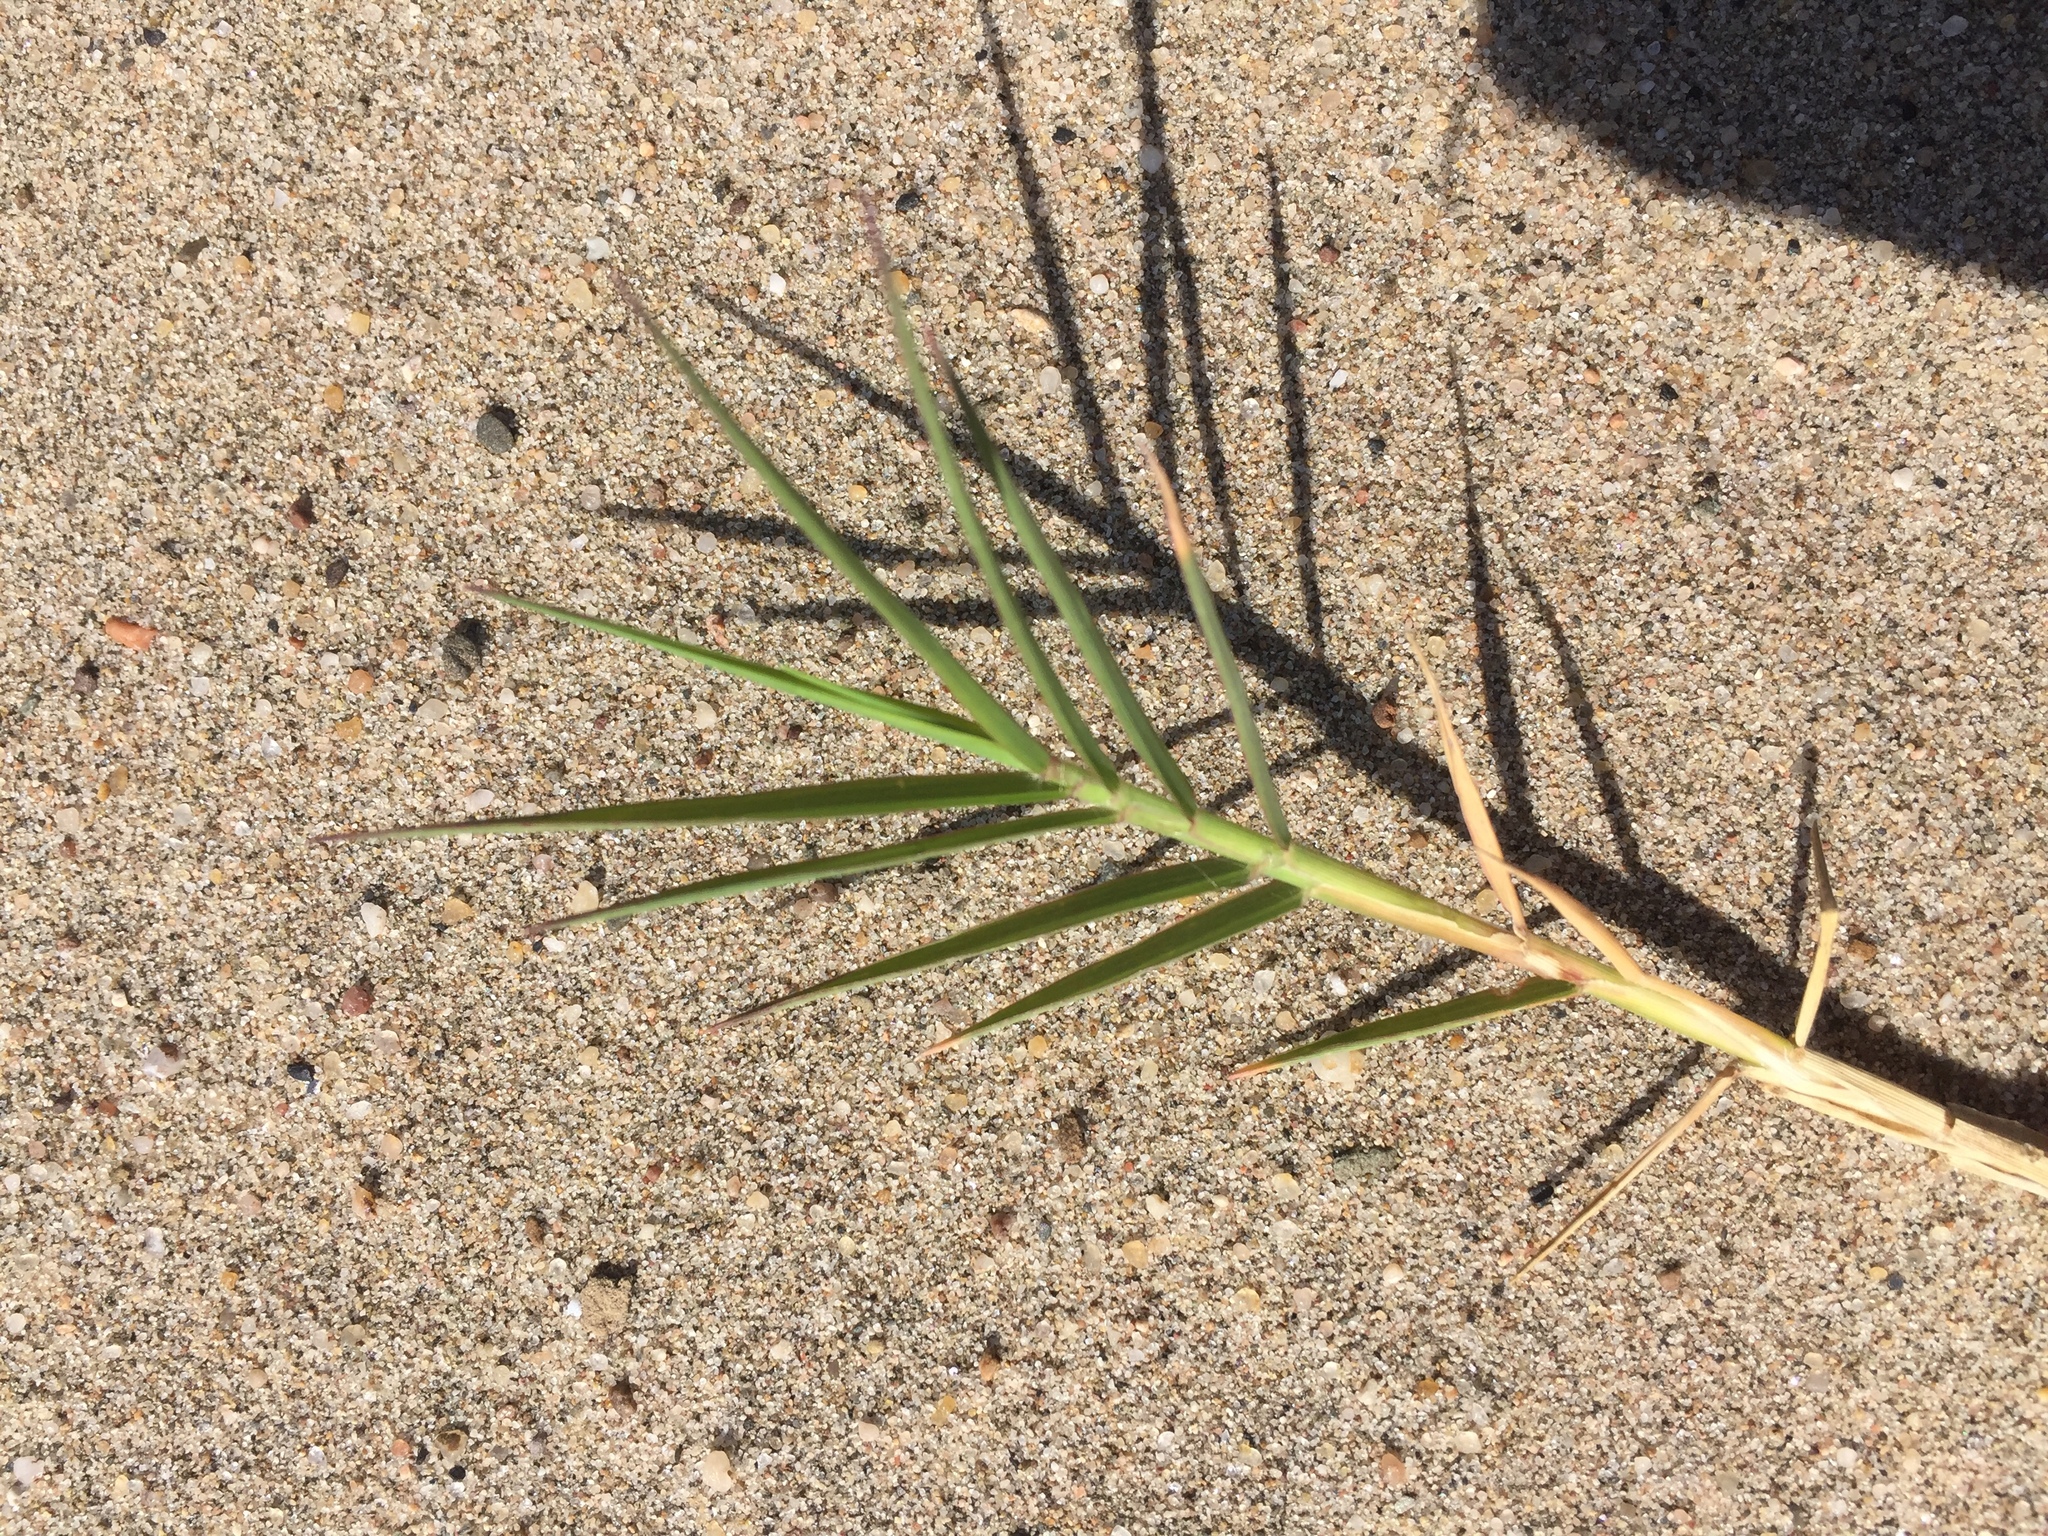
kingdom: Plantae
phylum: Tracheophyta
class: Liliopsida
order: Poales
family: Poaceae
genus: Cynodon
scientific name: Cynodon dactylon
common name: Bermuda grass
